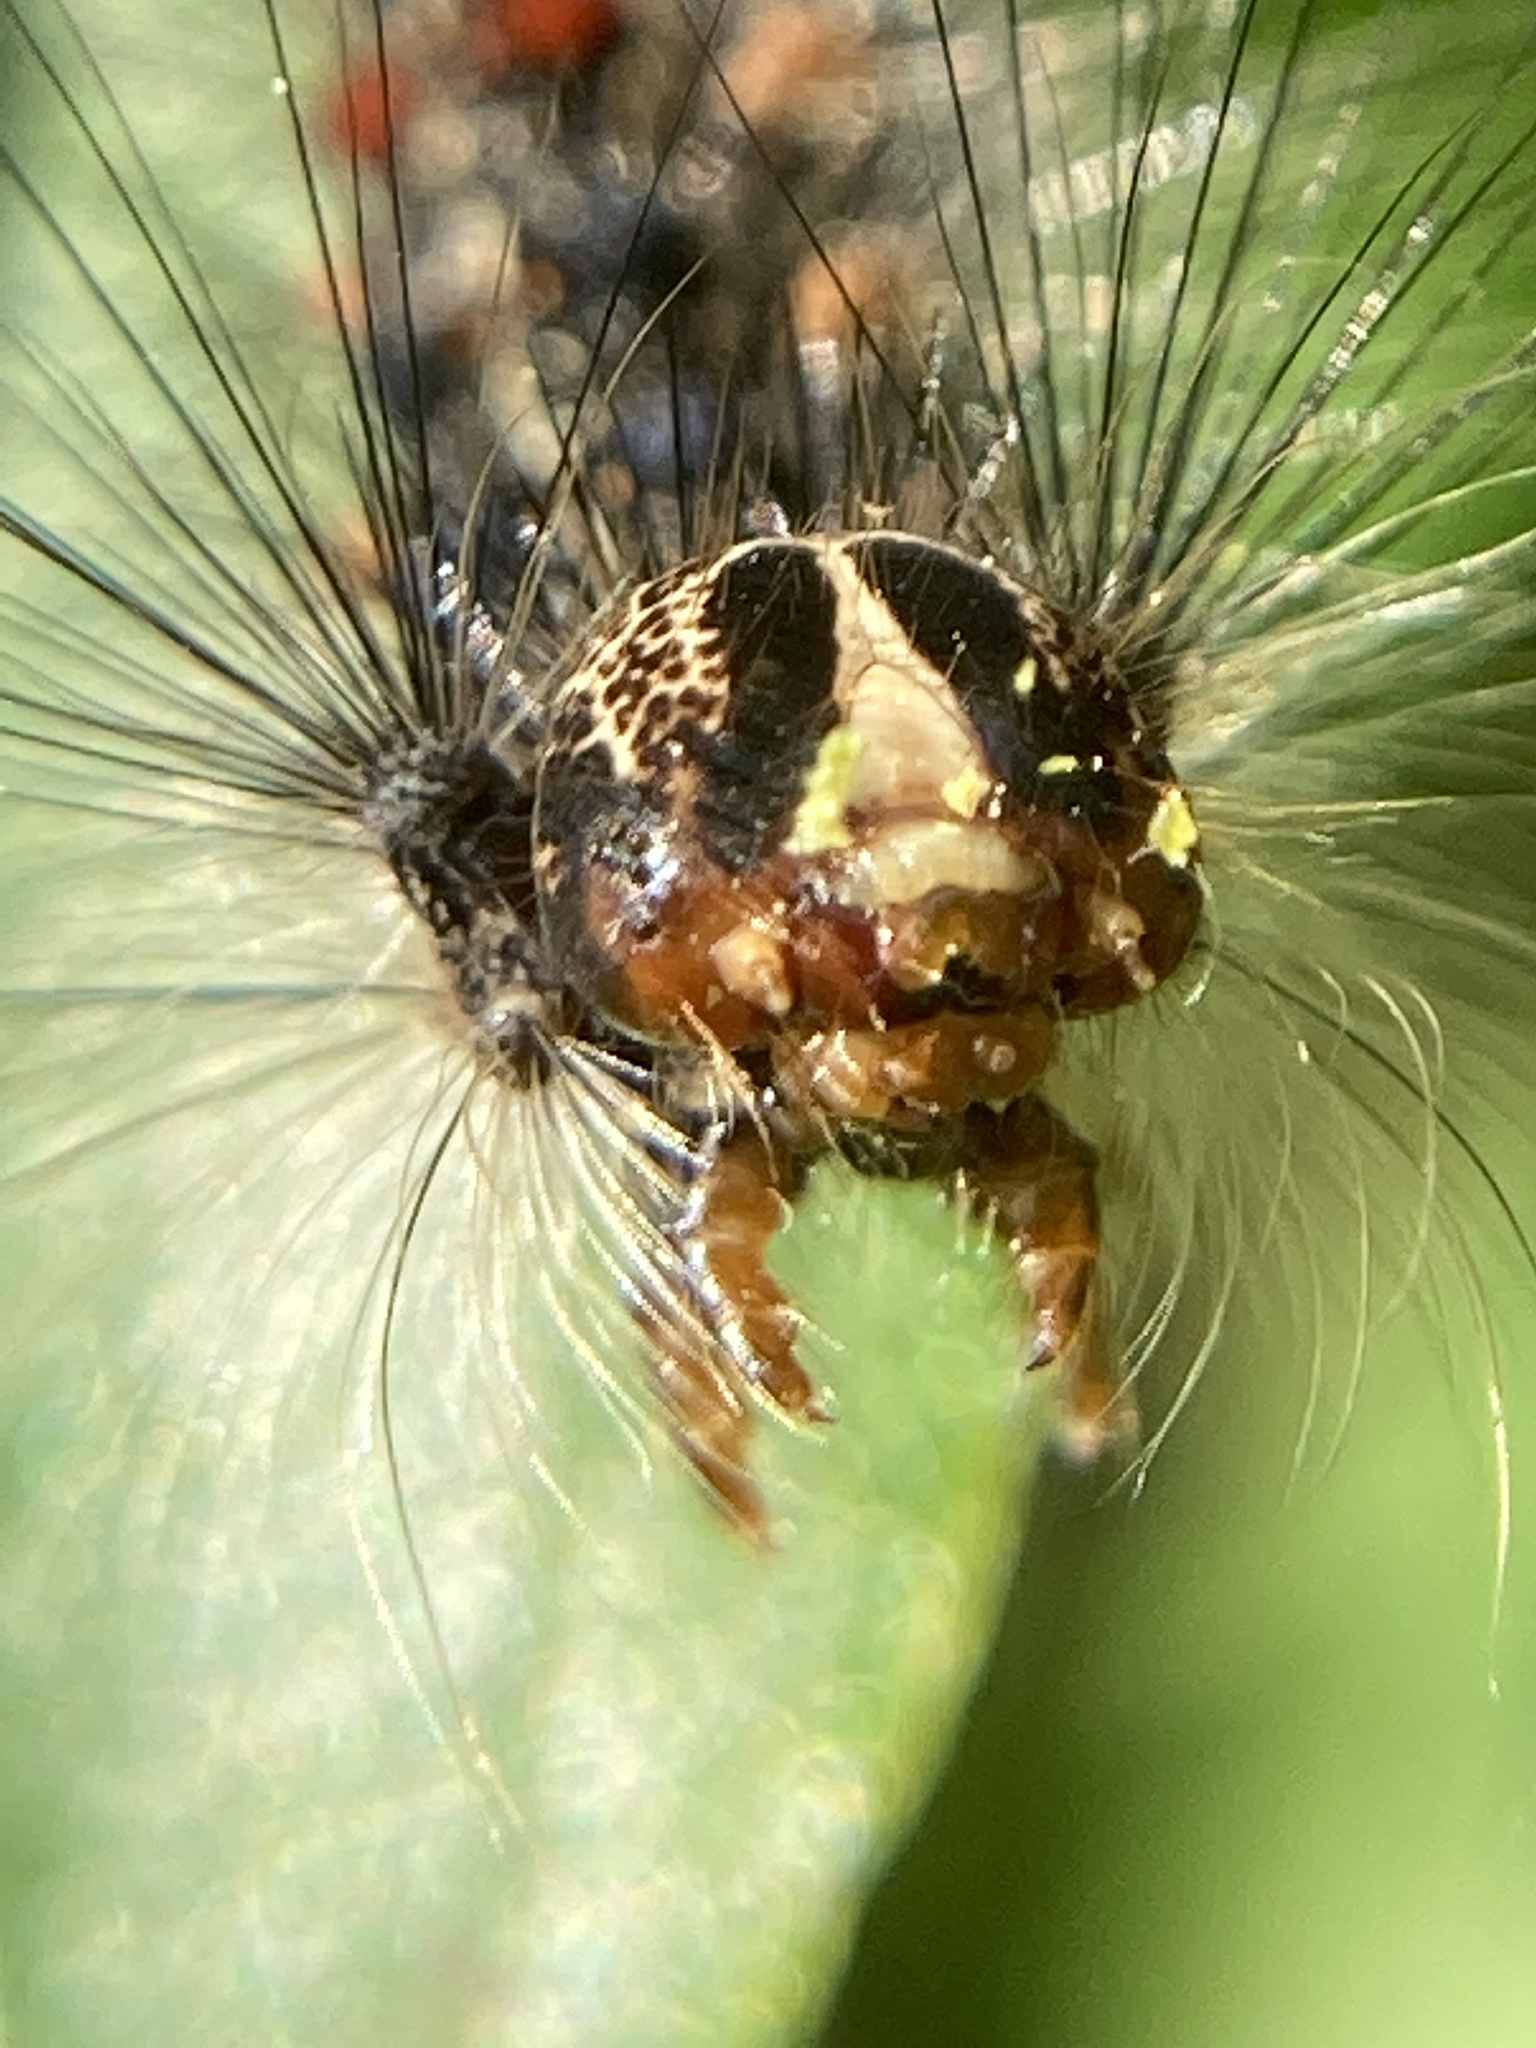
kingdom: Animalia
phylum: Arthropoda
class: Insecta
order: Lepidoptera
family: Erebidae
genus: Lymantria
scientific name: Lymantria dispar
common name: Gypsy moth
